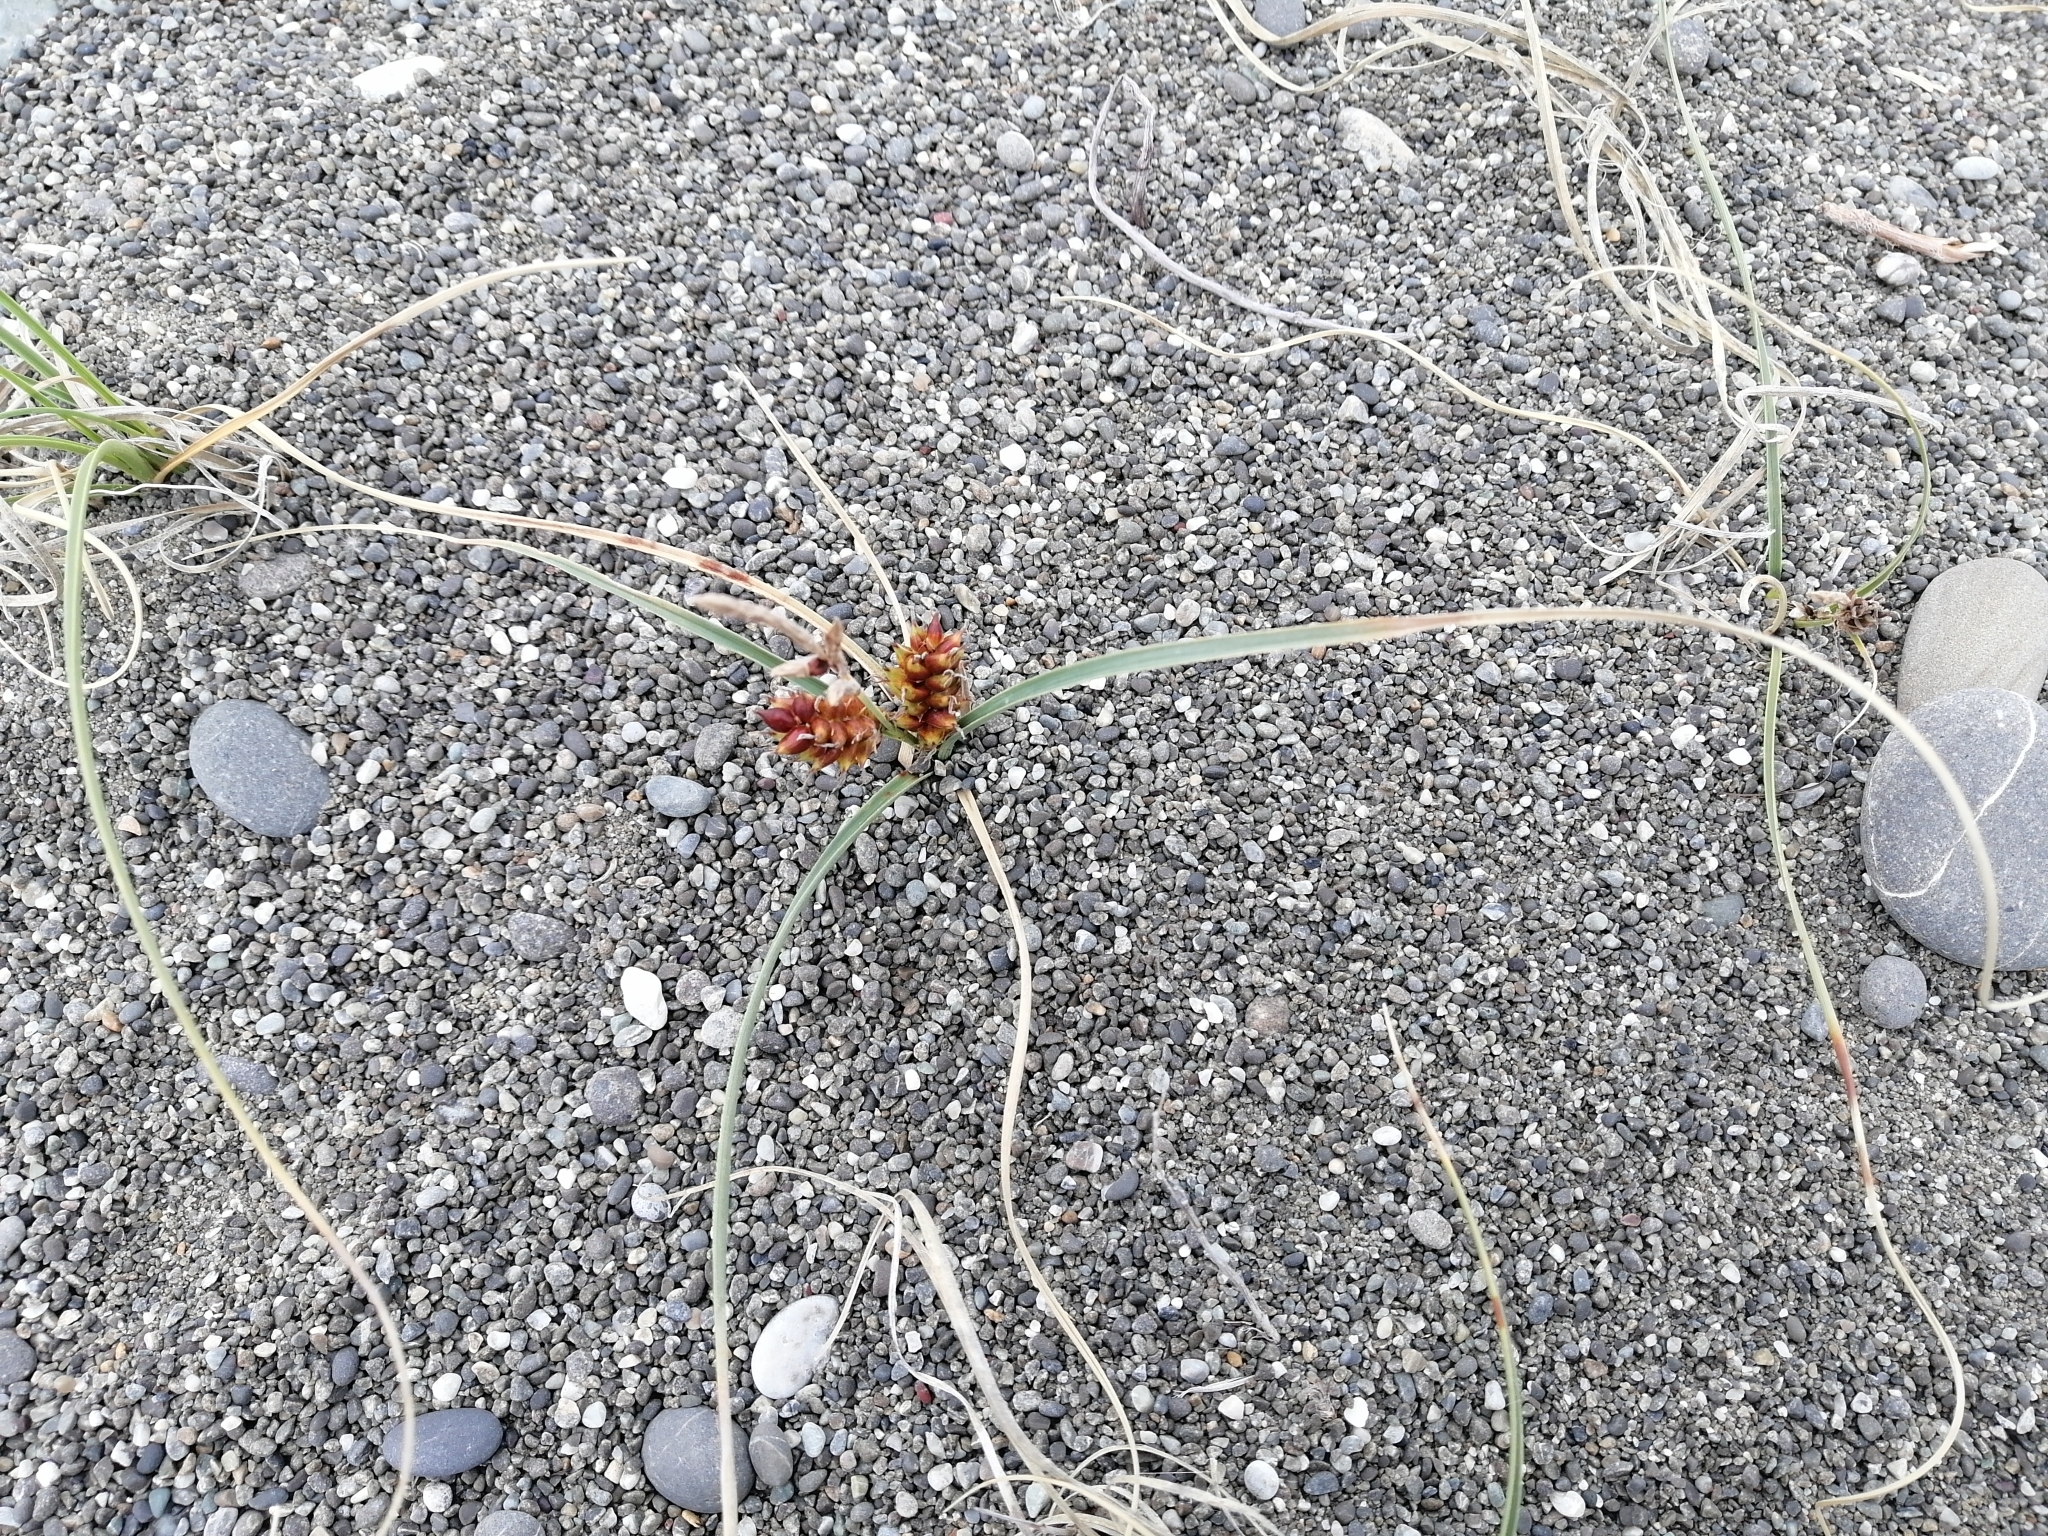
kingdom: Plantae
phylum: Tracheophyta
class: Liliopsida
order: Poales
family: Cyperaceae
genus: Carex
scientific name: Carex pumila
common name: Dwarf sedge
